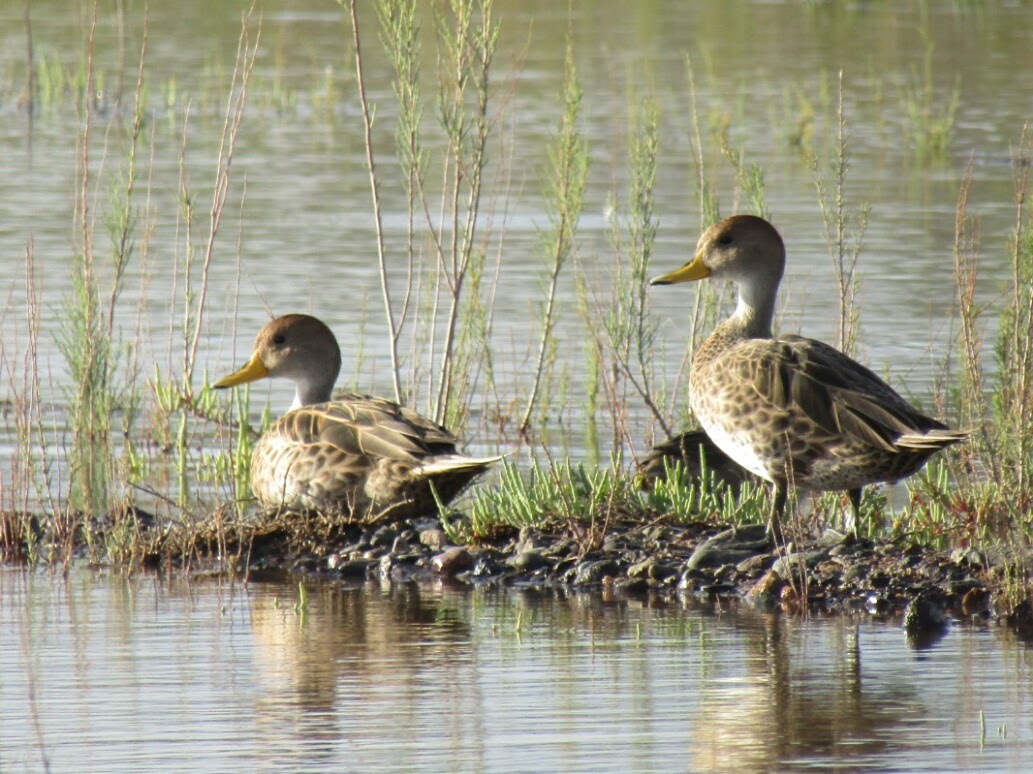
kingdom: Animalia
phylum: Chordata
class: Aves
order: Anseriformes
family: Anatidae
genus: Anas
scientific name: Anas georgica
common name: Yellow-billed pintail
